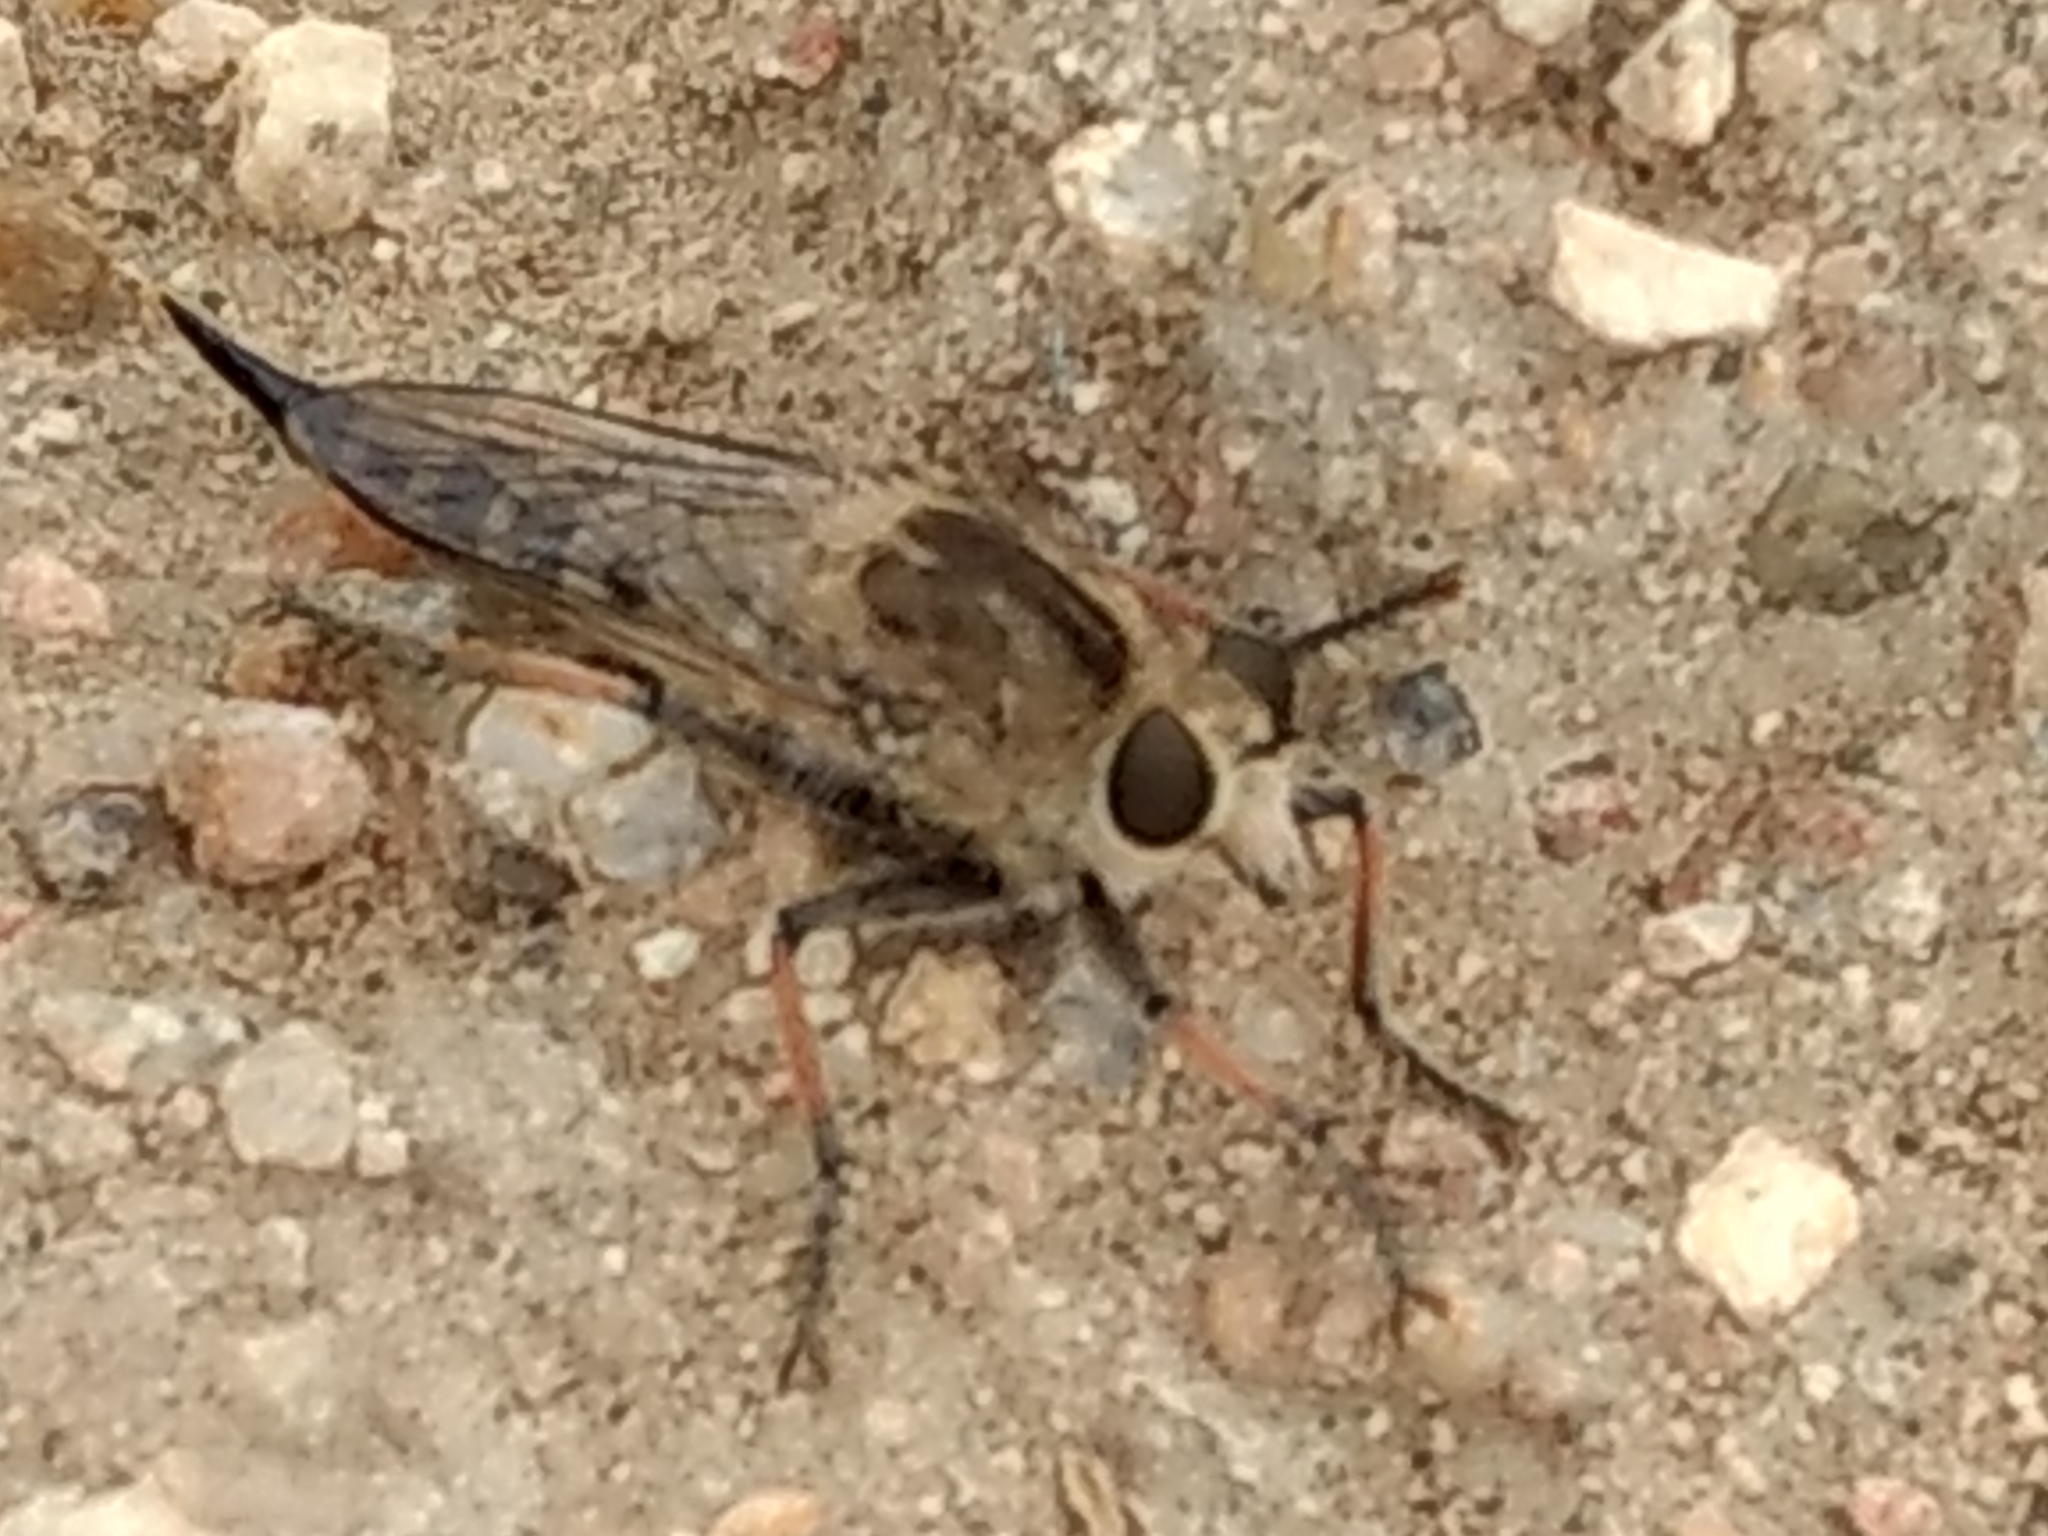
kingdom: Animalia
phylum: Arthropoda
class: Insecta
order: Diptera
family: Asilidae
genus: Efferia
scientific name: Efferia albibarbis
